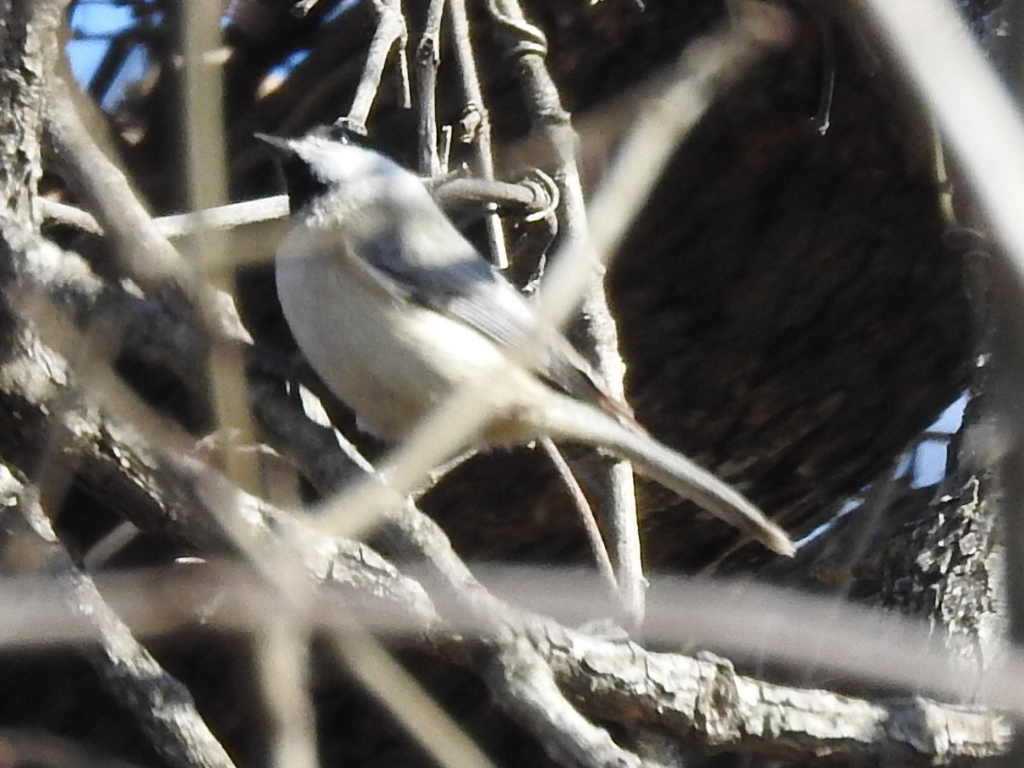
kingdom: Animalia
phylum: Chordata
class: Aves
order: Passeriformes
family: Paridae
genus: Poecile
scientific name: Poecile carolinensis
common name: Carolina chickadee
